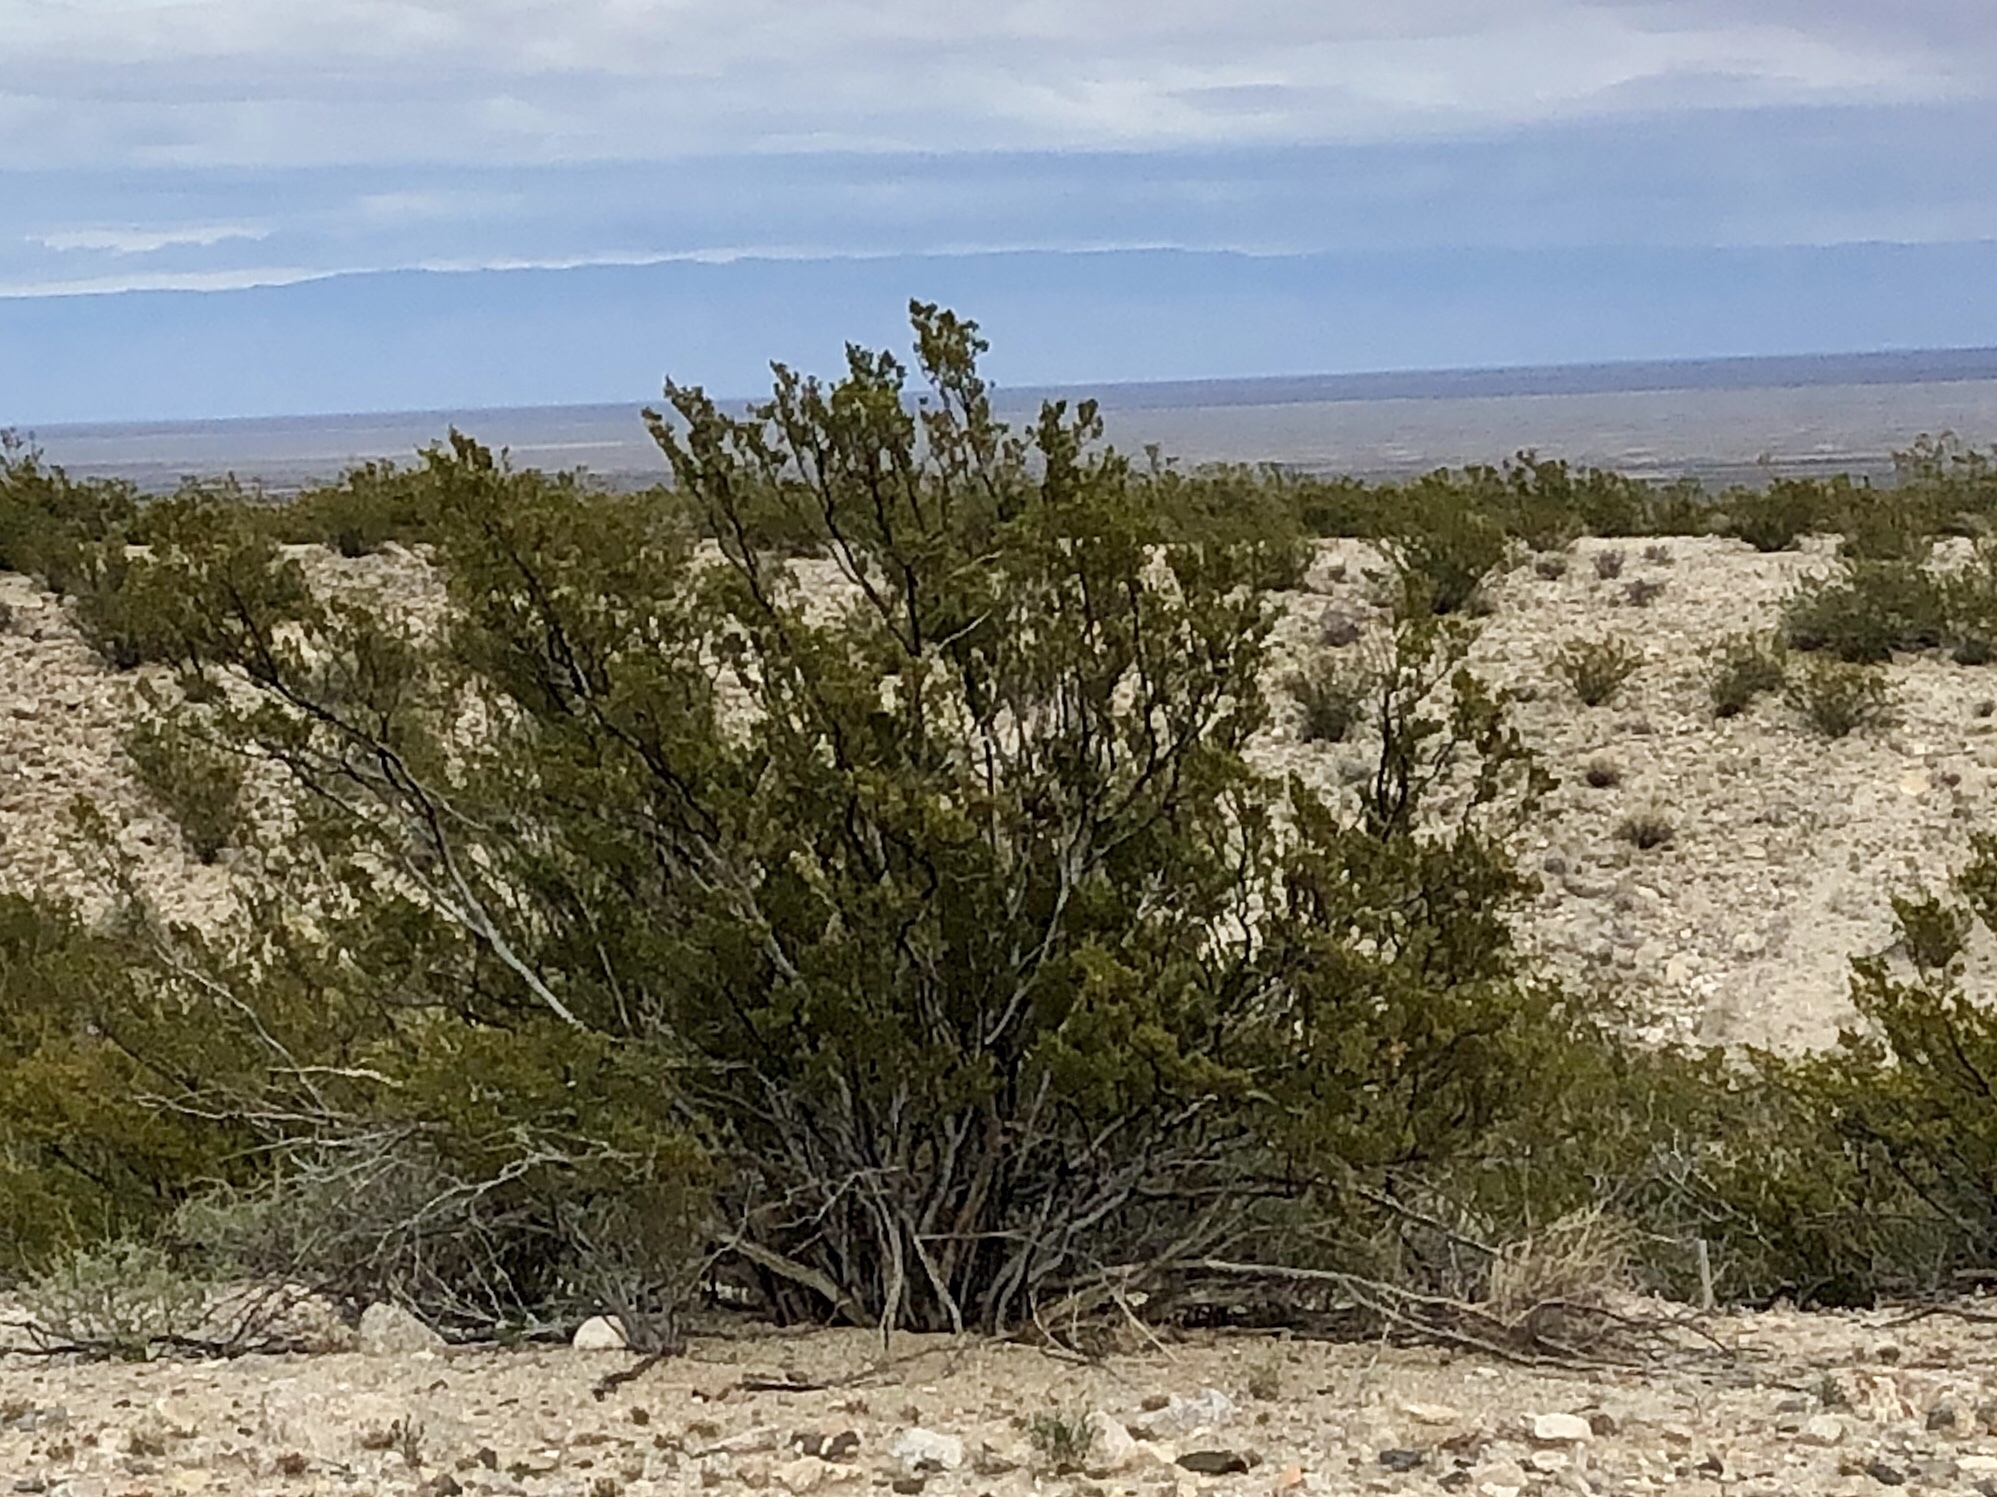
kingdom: Plantae
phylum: Tracheophyta
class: Magnoliopsida
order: Zygophyllales
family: Zygophyllaceae
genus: Larrea
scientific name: Larrea tridentata
